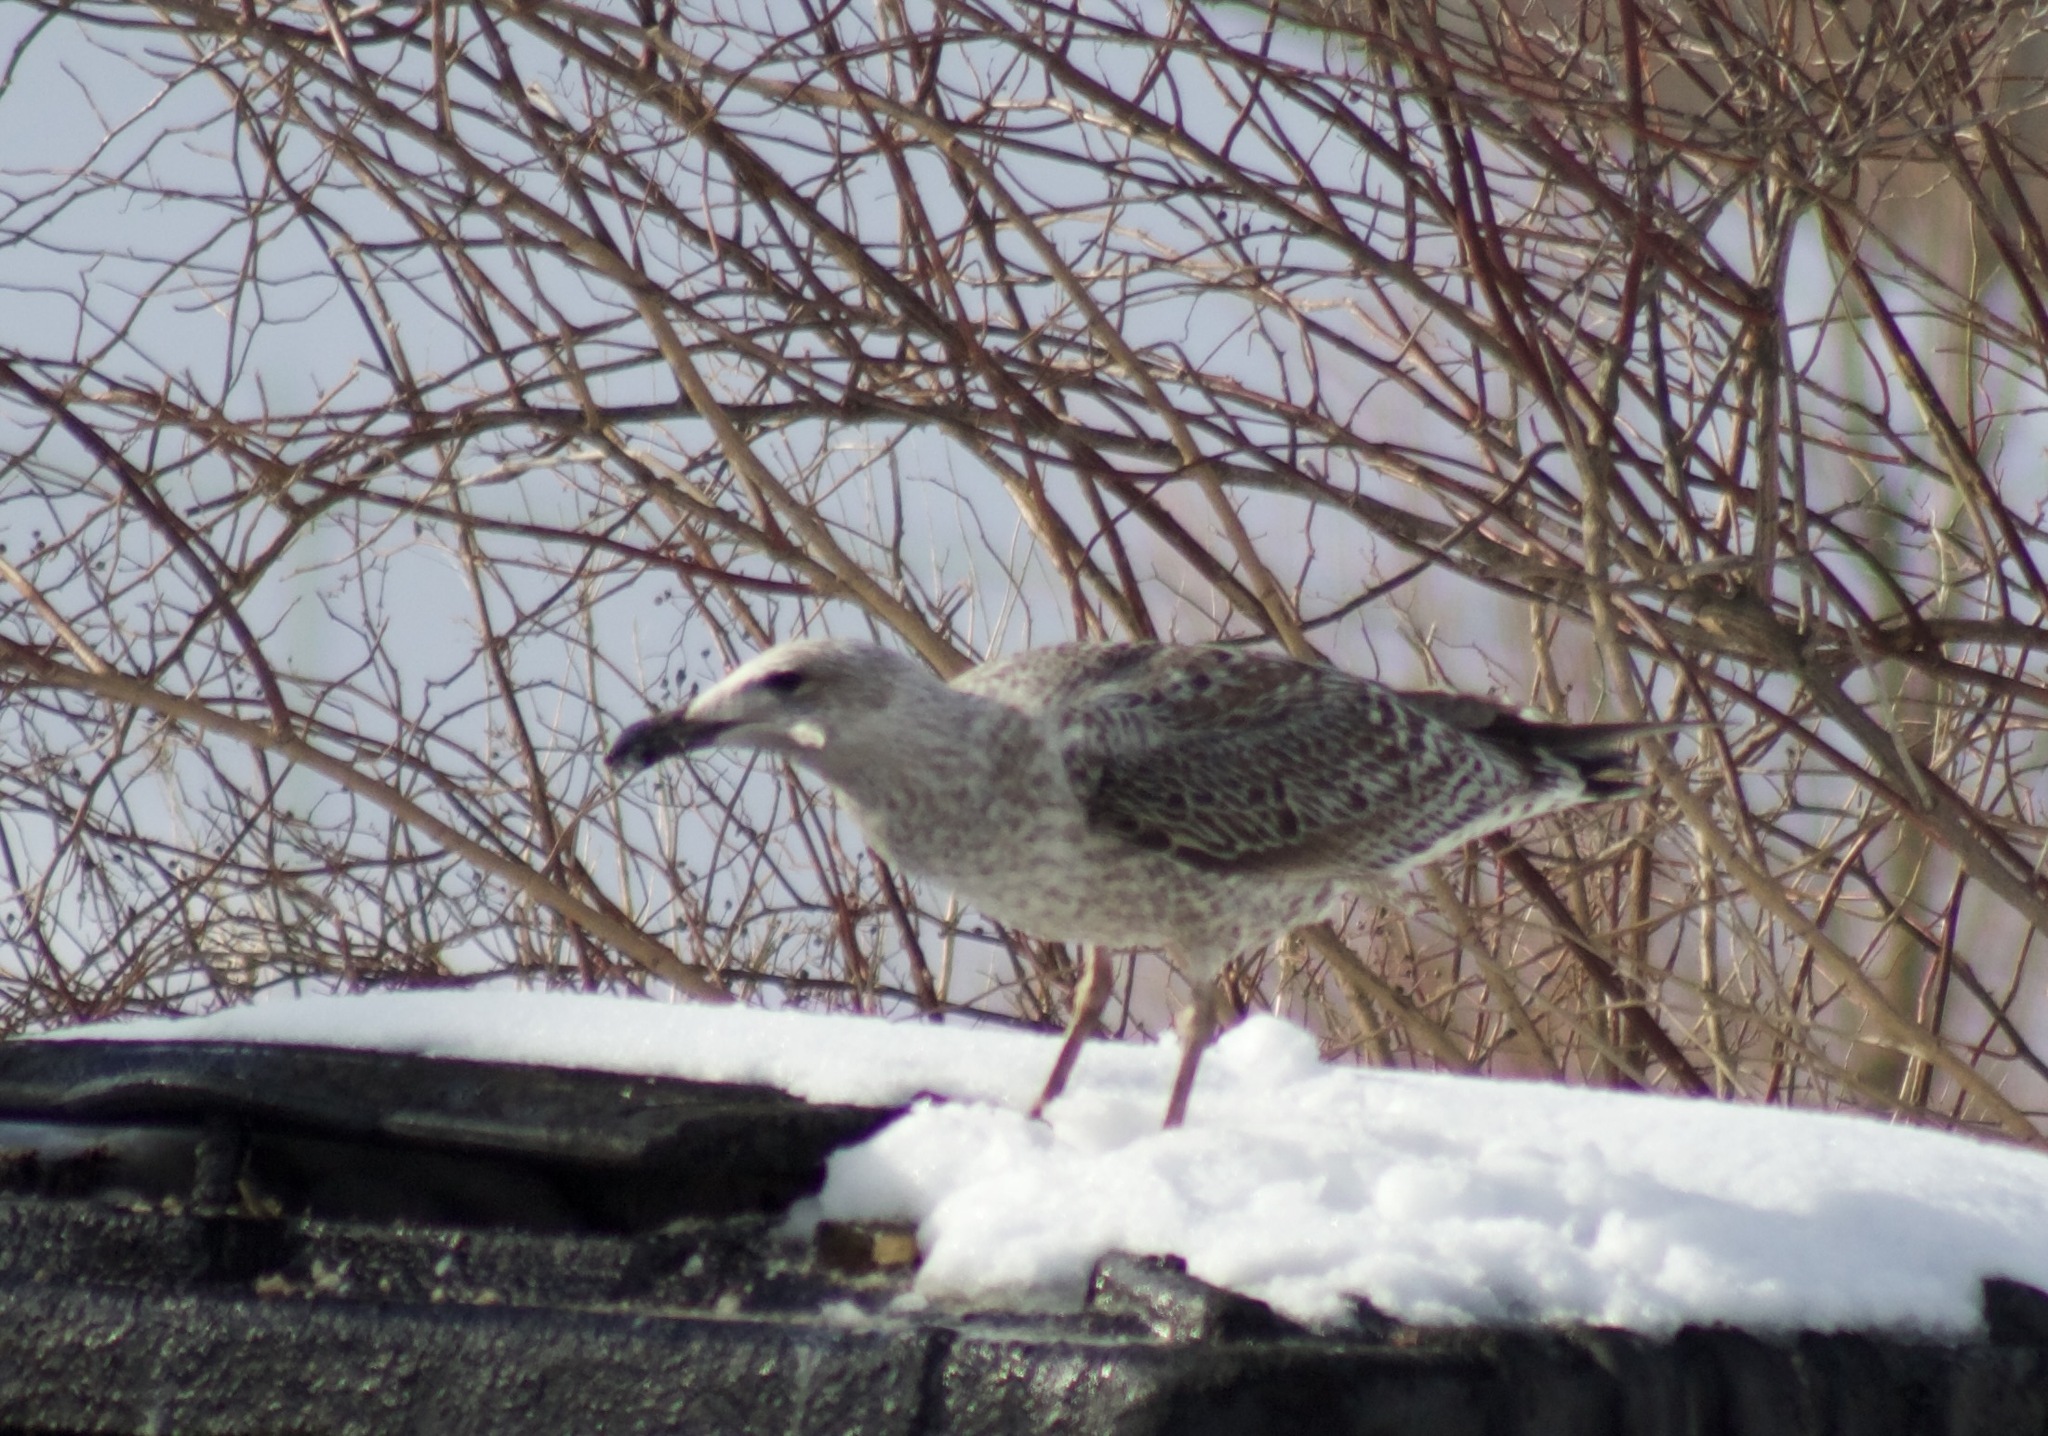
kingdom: Animalia
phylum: Chordata
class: Aves
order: Charadriiformes
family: Laridae
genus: Larus
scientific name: Larus argentatus
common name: Herring gull
